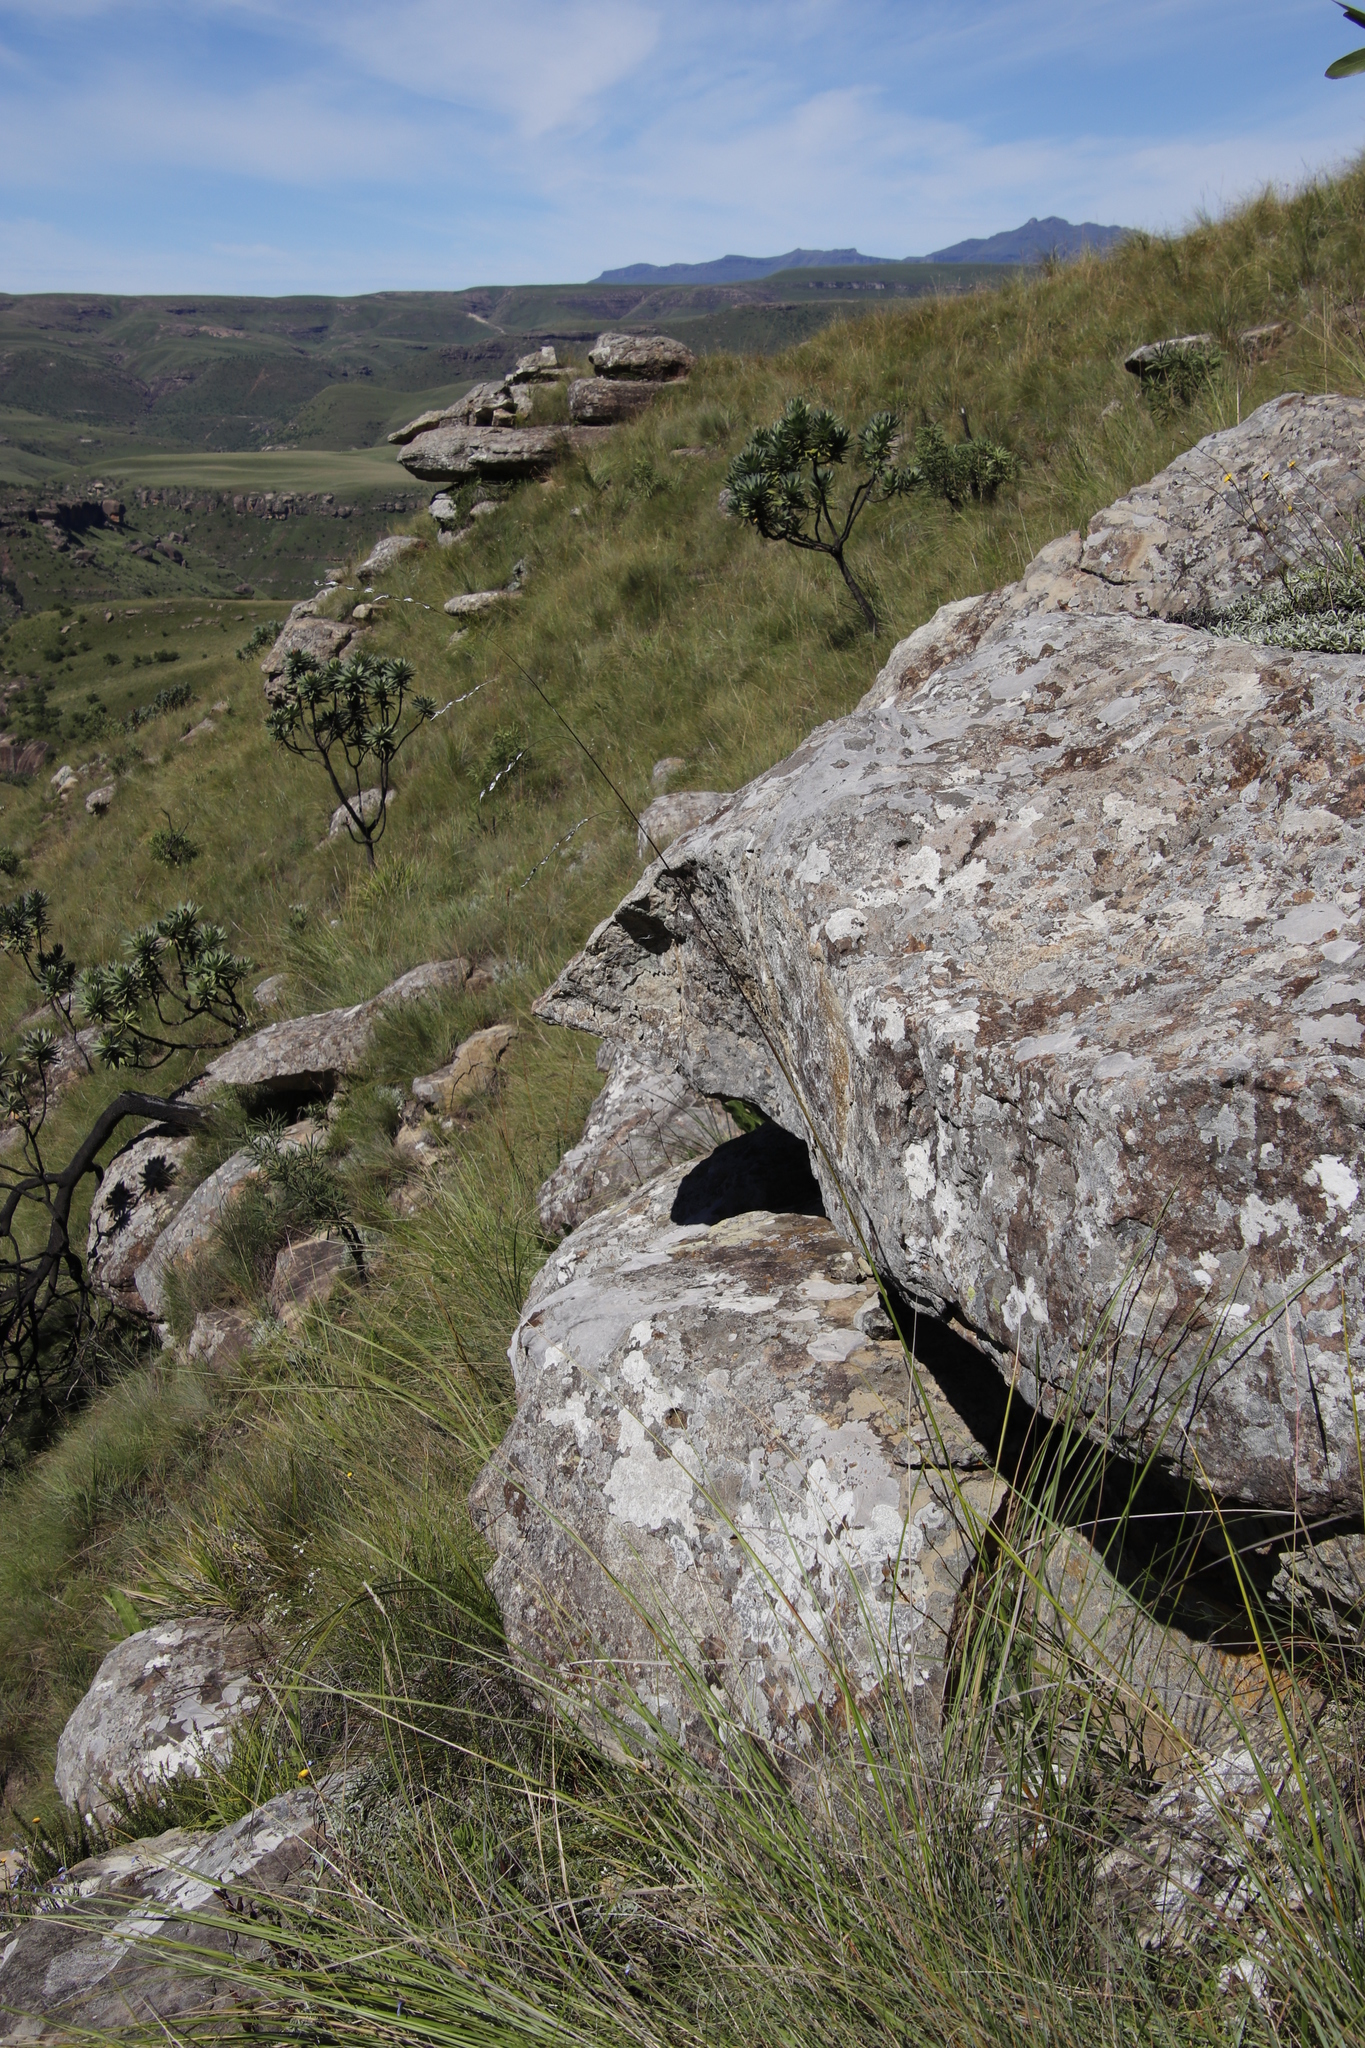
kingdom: Plantae
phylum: Tracheophyta
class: Magnoliopsida
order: Proteales
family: Proteaceae
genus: Protea
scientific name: Protea roupelliae
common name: Silver sugarbush
